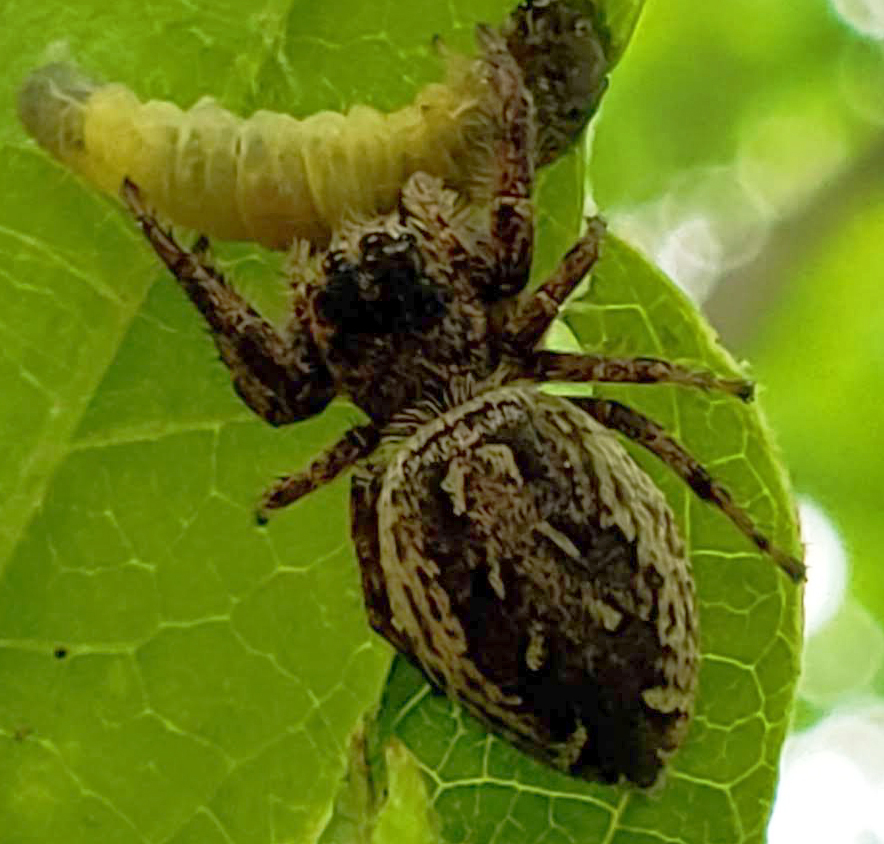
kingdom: Animalia
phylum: Arthropoda
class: Arachnida
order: Araneae
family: Salticidae
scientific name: Salticidae
